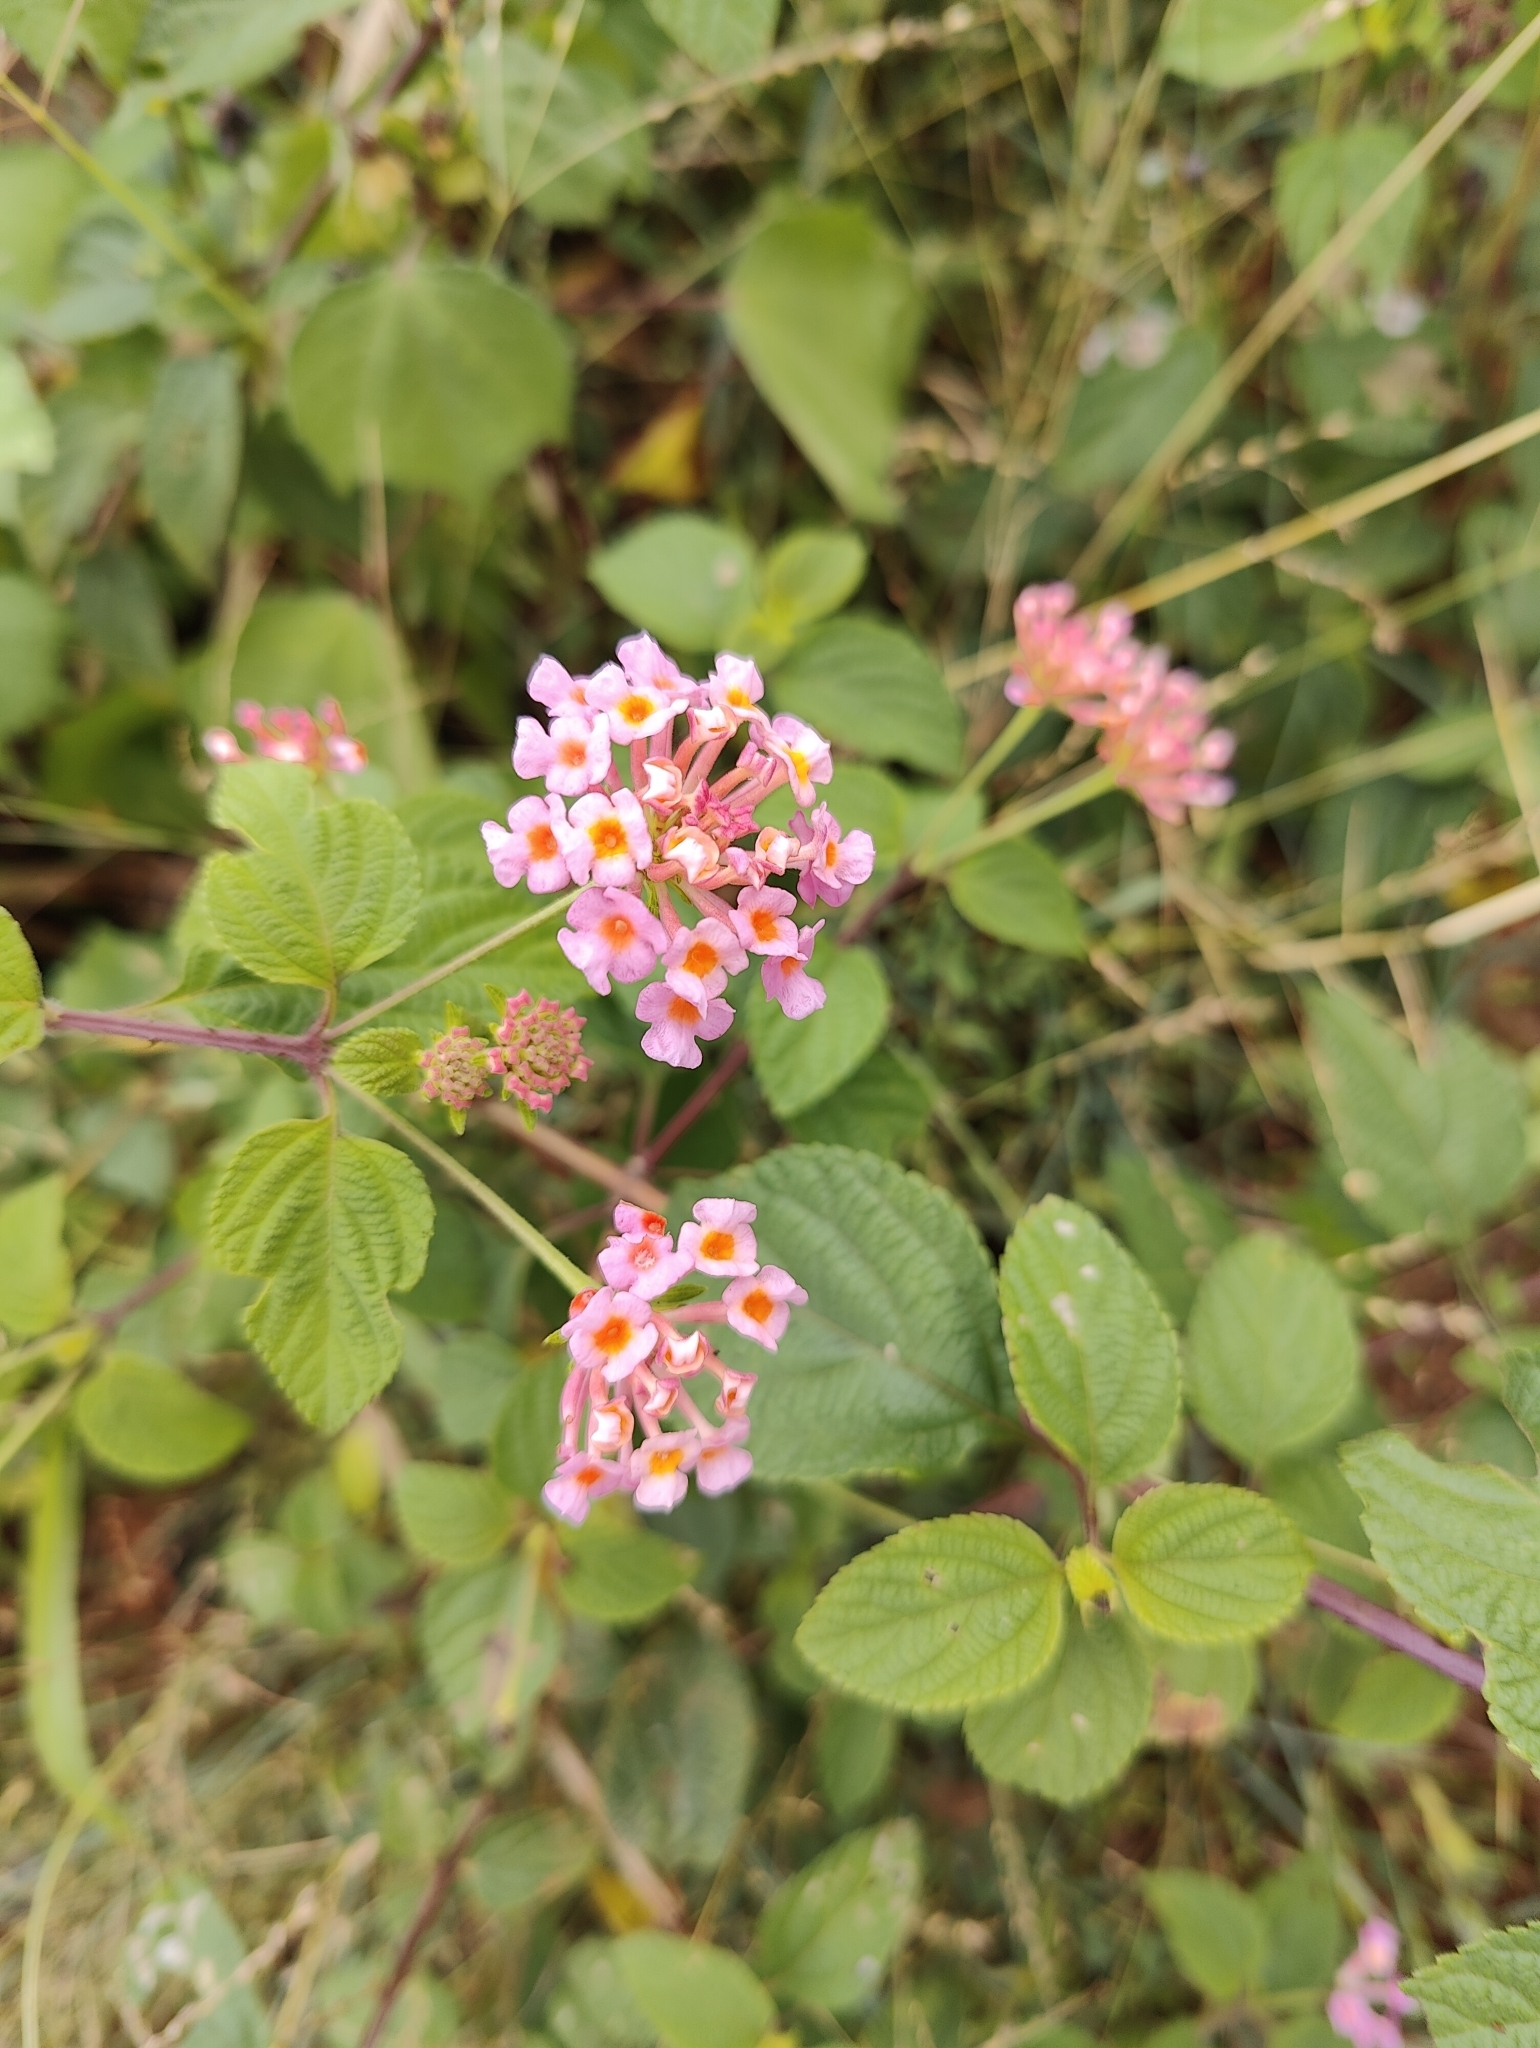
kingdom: Plantae
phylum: Tracheophyta
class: Magnoliopsida
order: Lamiales
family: Verbenaceae
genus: Lantana
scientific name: Lantana camara
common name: Lantana
